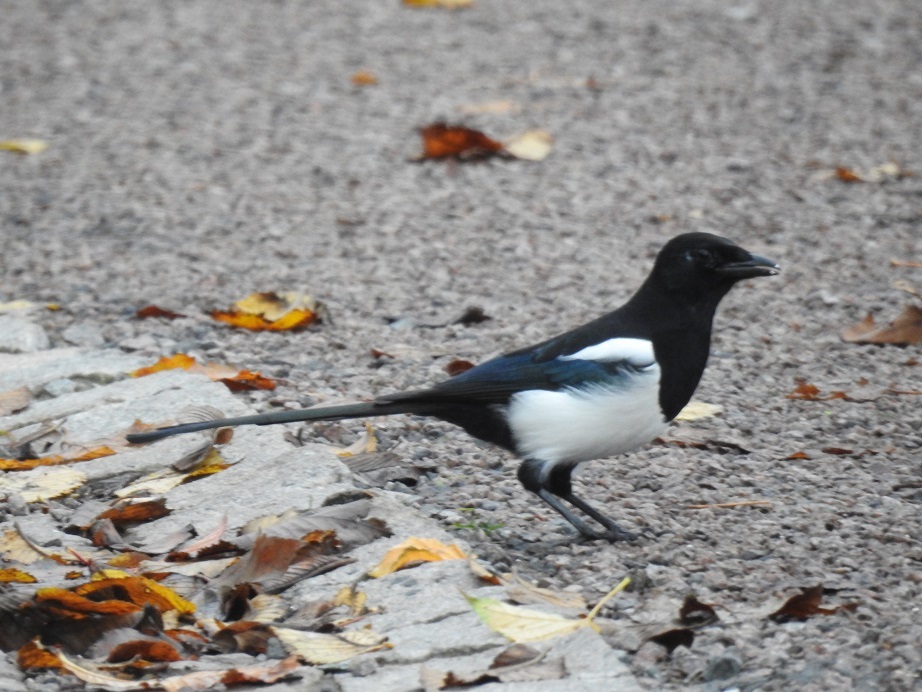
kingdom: Animalia
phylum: Chordata
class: Aves
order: Passeriformes
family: Corvidae
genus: Pica
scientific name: Pica pica
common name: Eurasian magpie
